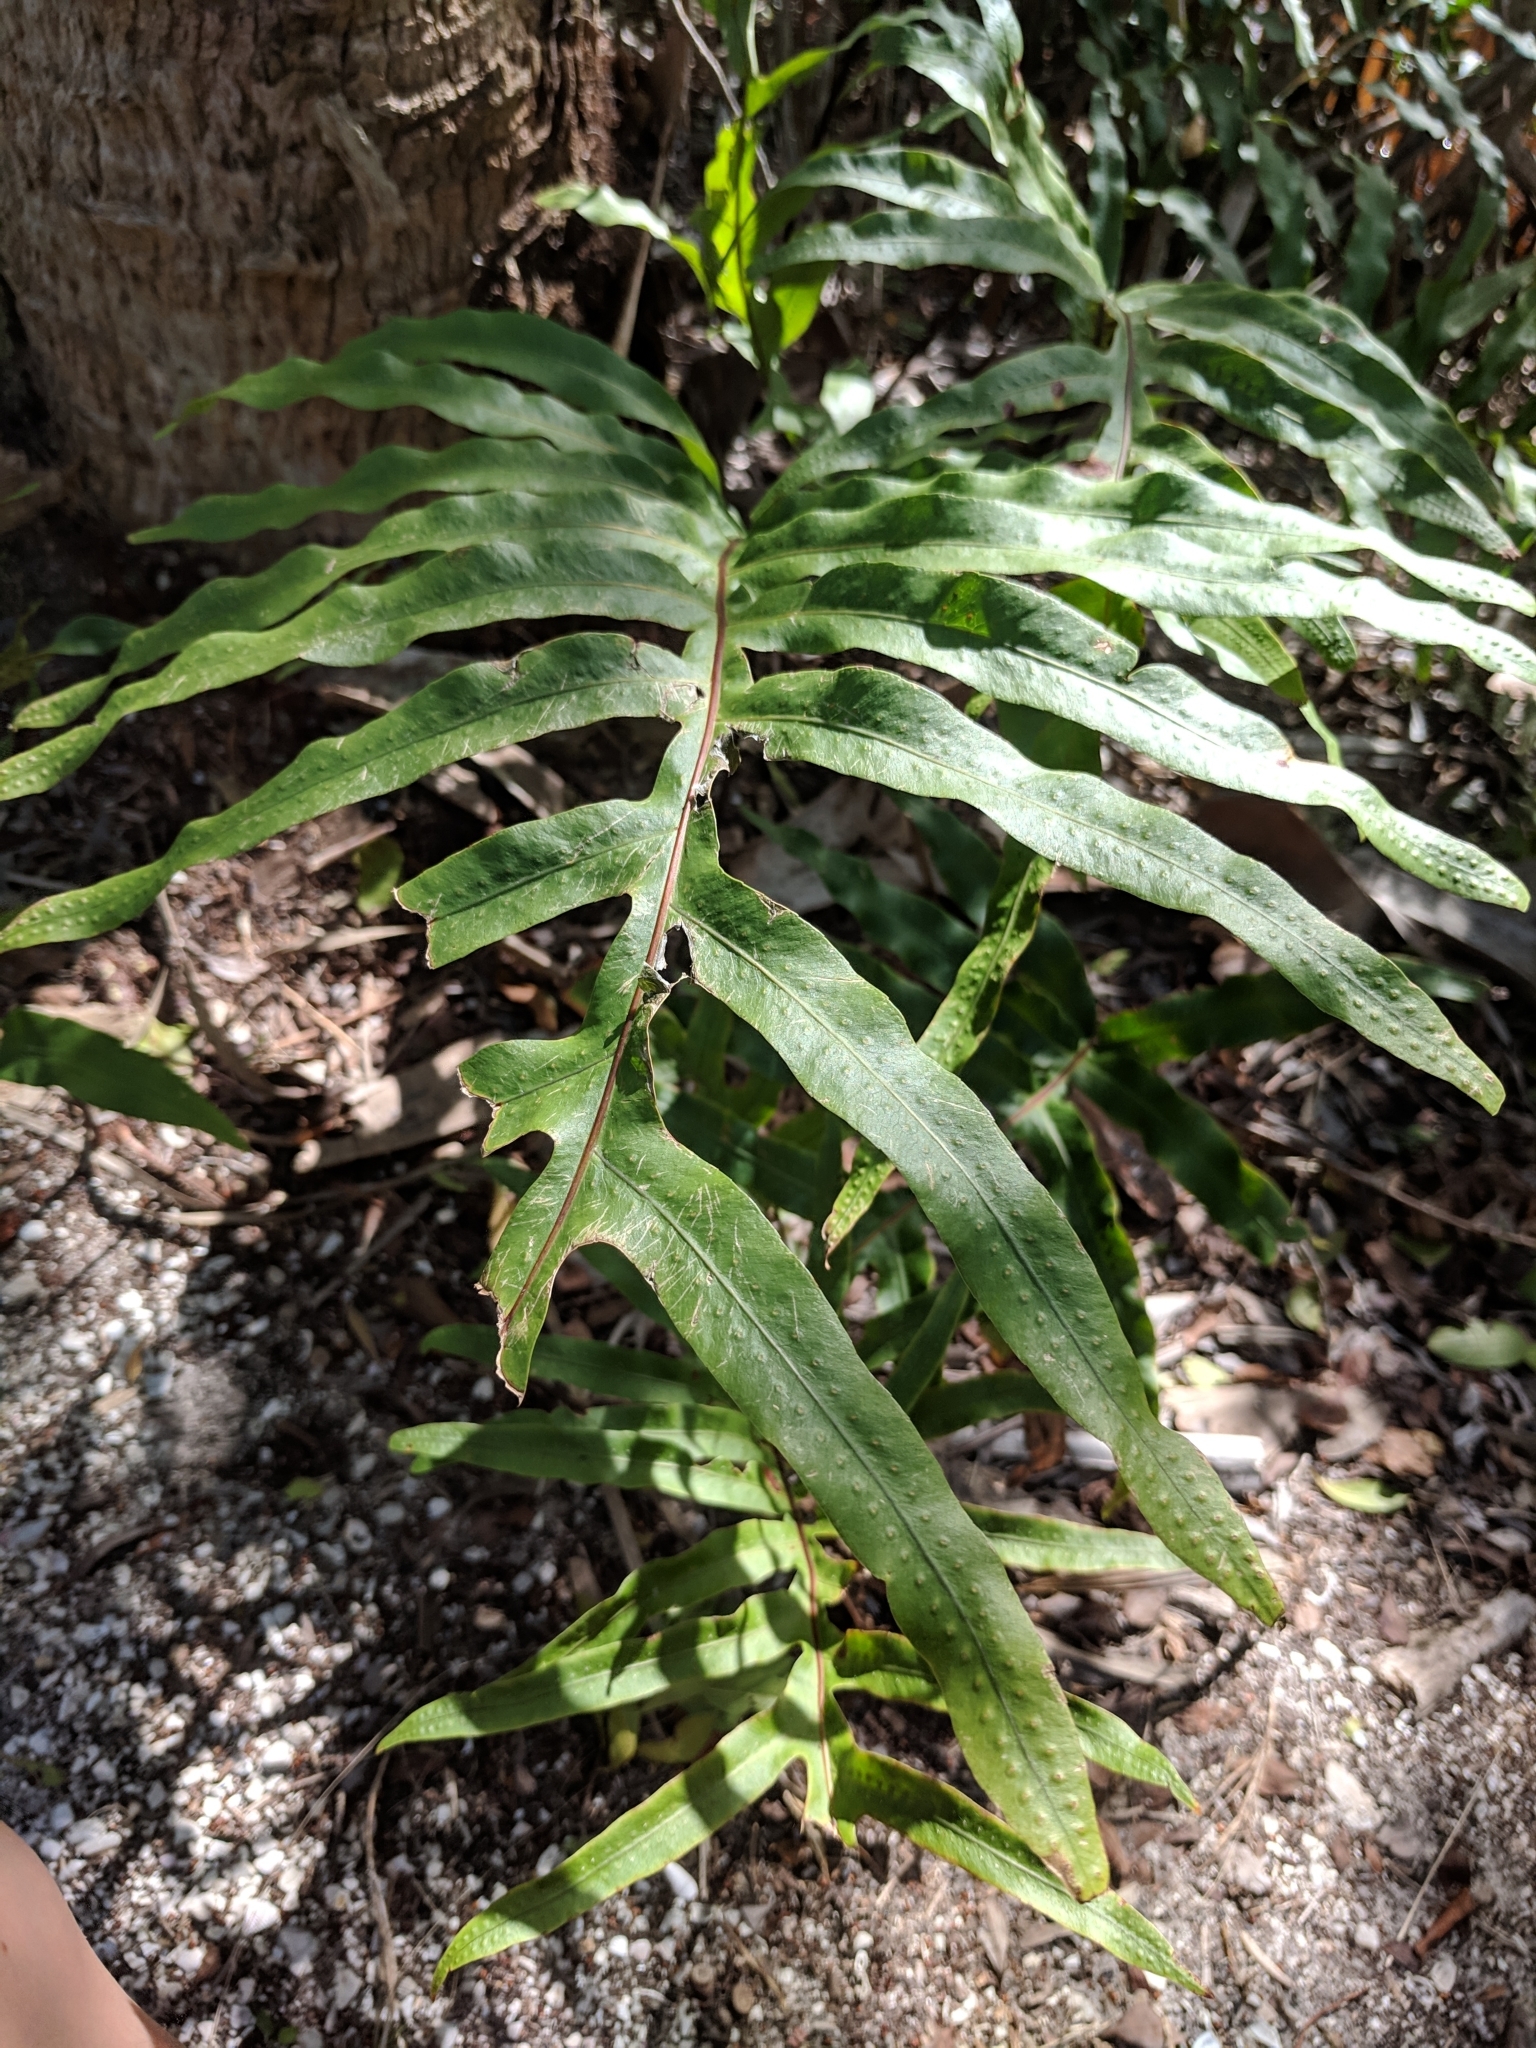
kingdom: Plantae
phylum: Tracheophyta
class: Polypodiopsida
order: Polypodiales
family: Polypodiaceae
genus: Phlebodium
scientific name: Phlebodium aureum
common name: Gold-foot fern
